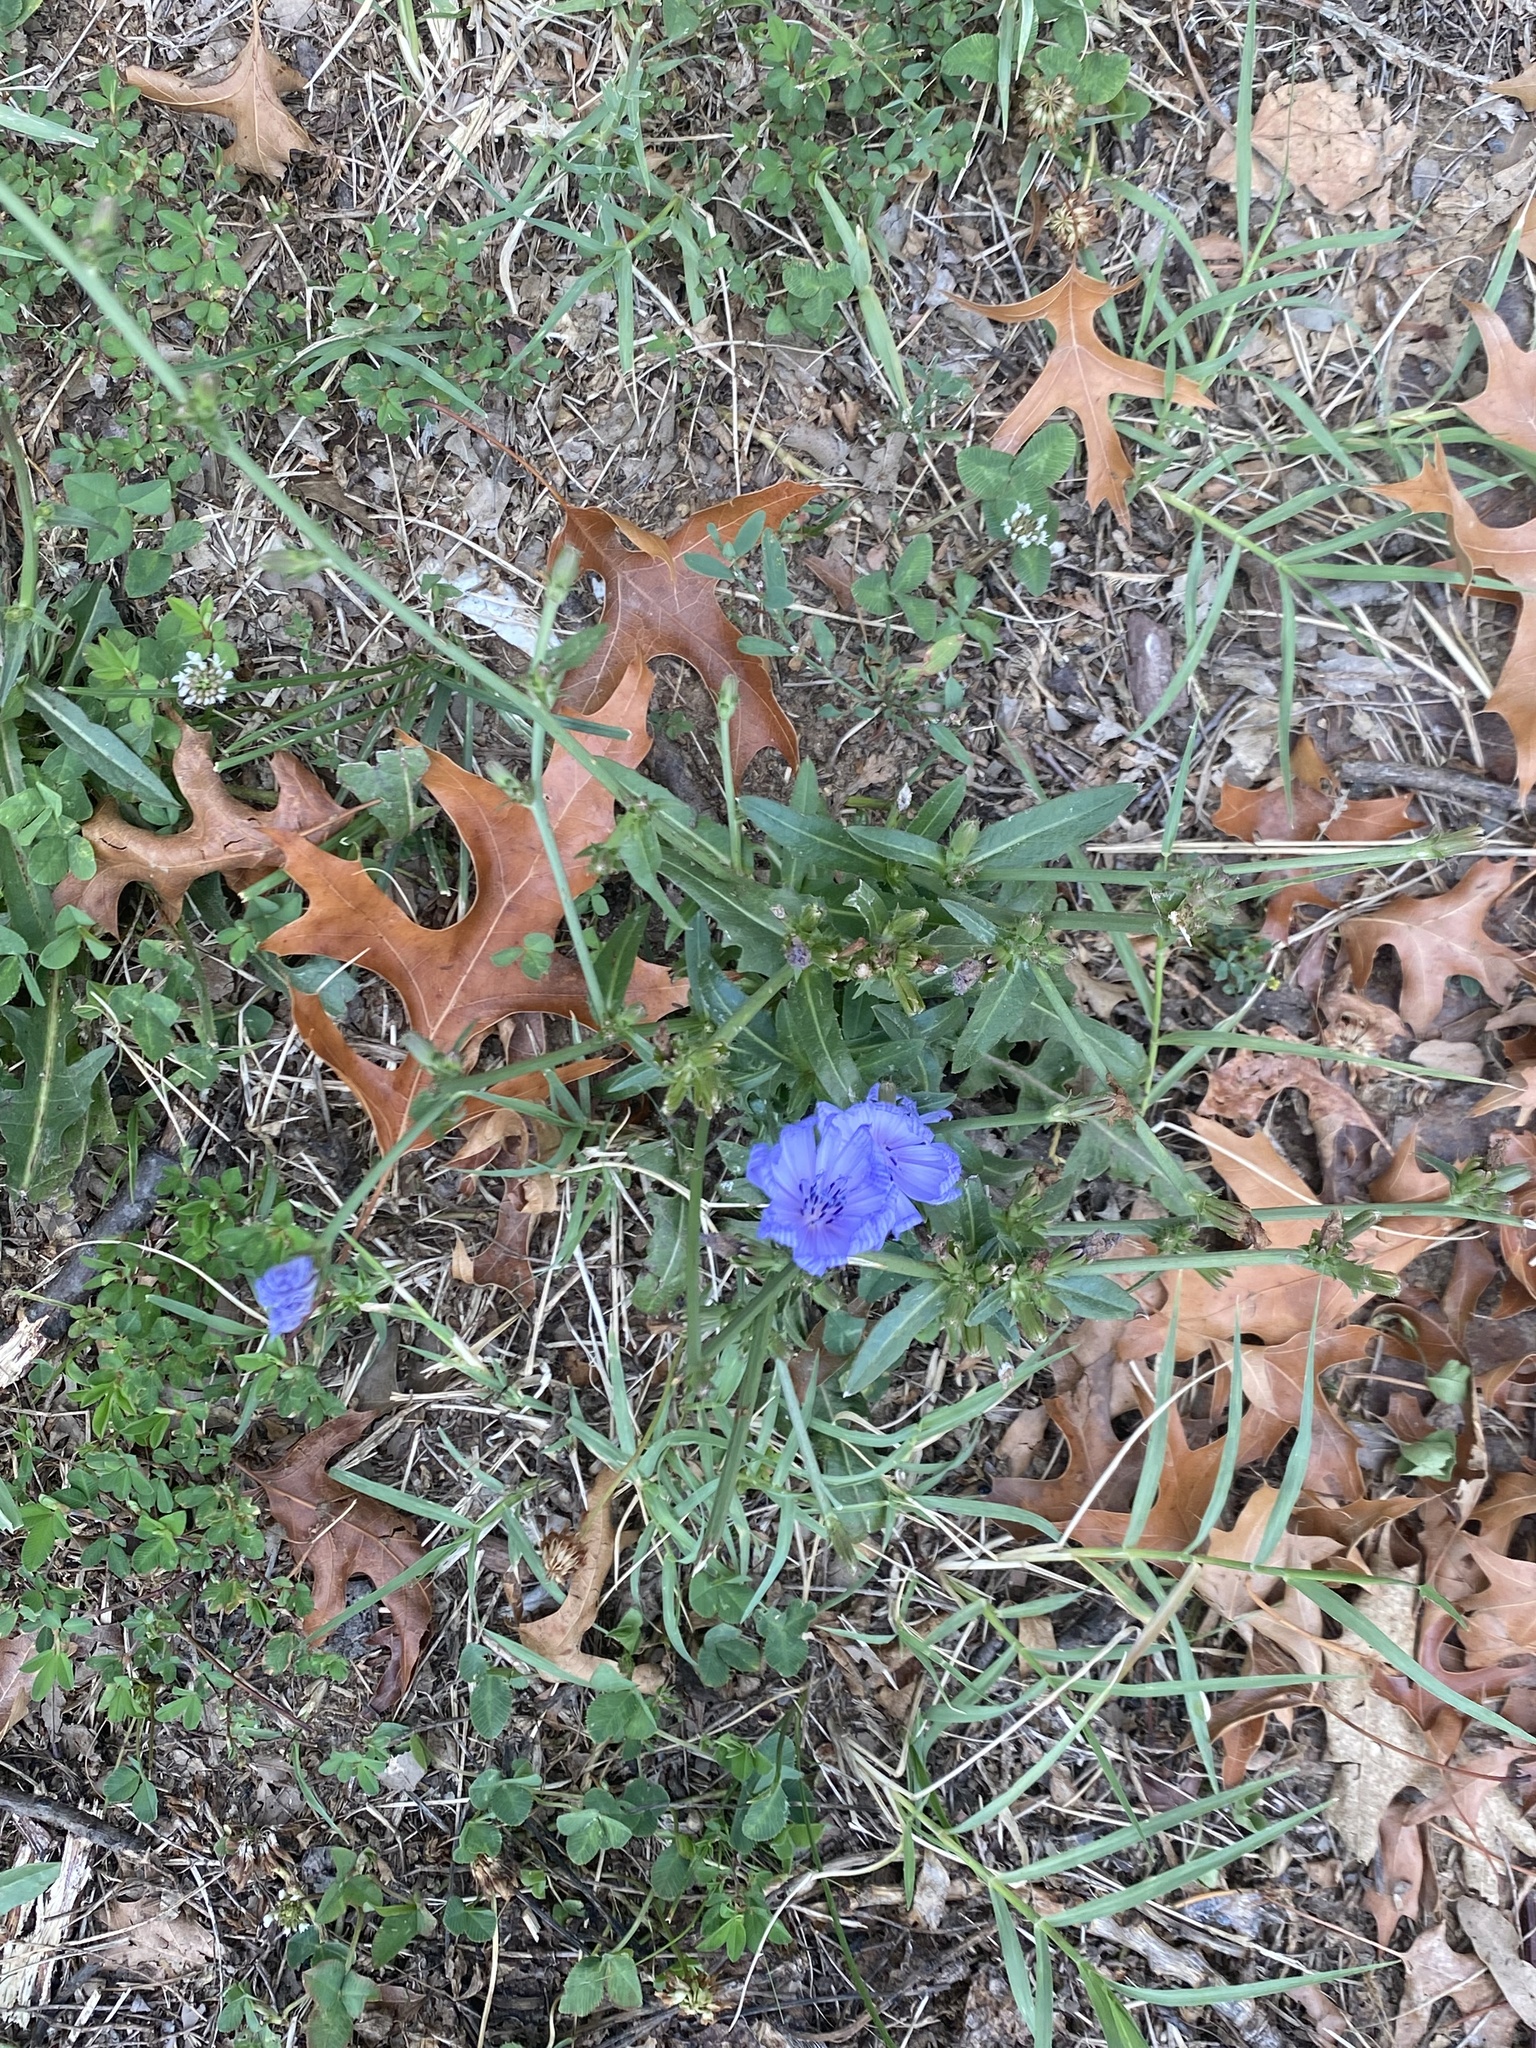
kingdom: Plantae
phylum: Tracheophyta
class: Magnoliopsida
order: Asterales
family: Asteraceae
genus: Cichorium
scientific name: Cichorium intybus
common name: Chicory
